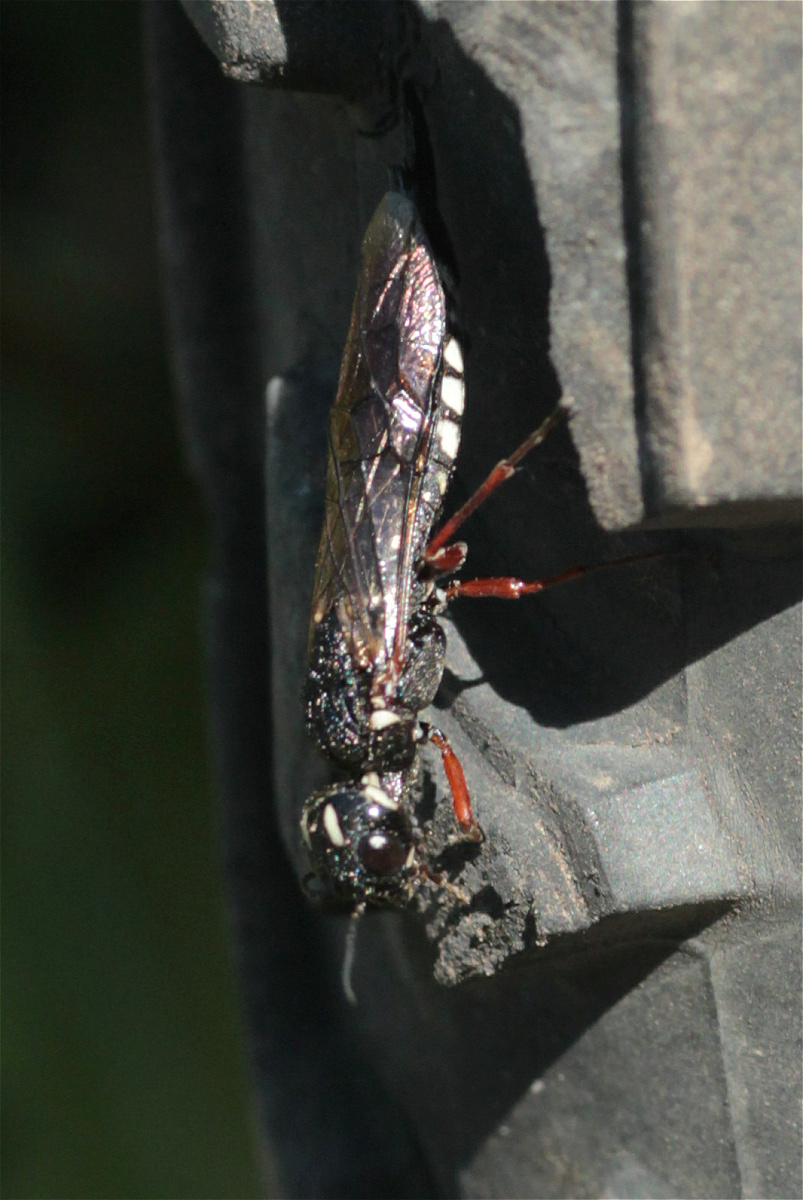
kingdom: Animalia
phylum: Arthropoda
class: Insecta
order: Hymenoptera
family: Xiphydriidae
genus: Xiphydria
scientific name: Xiphydria camelus
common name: Alder wood-wasp
